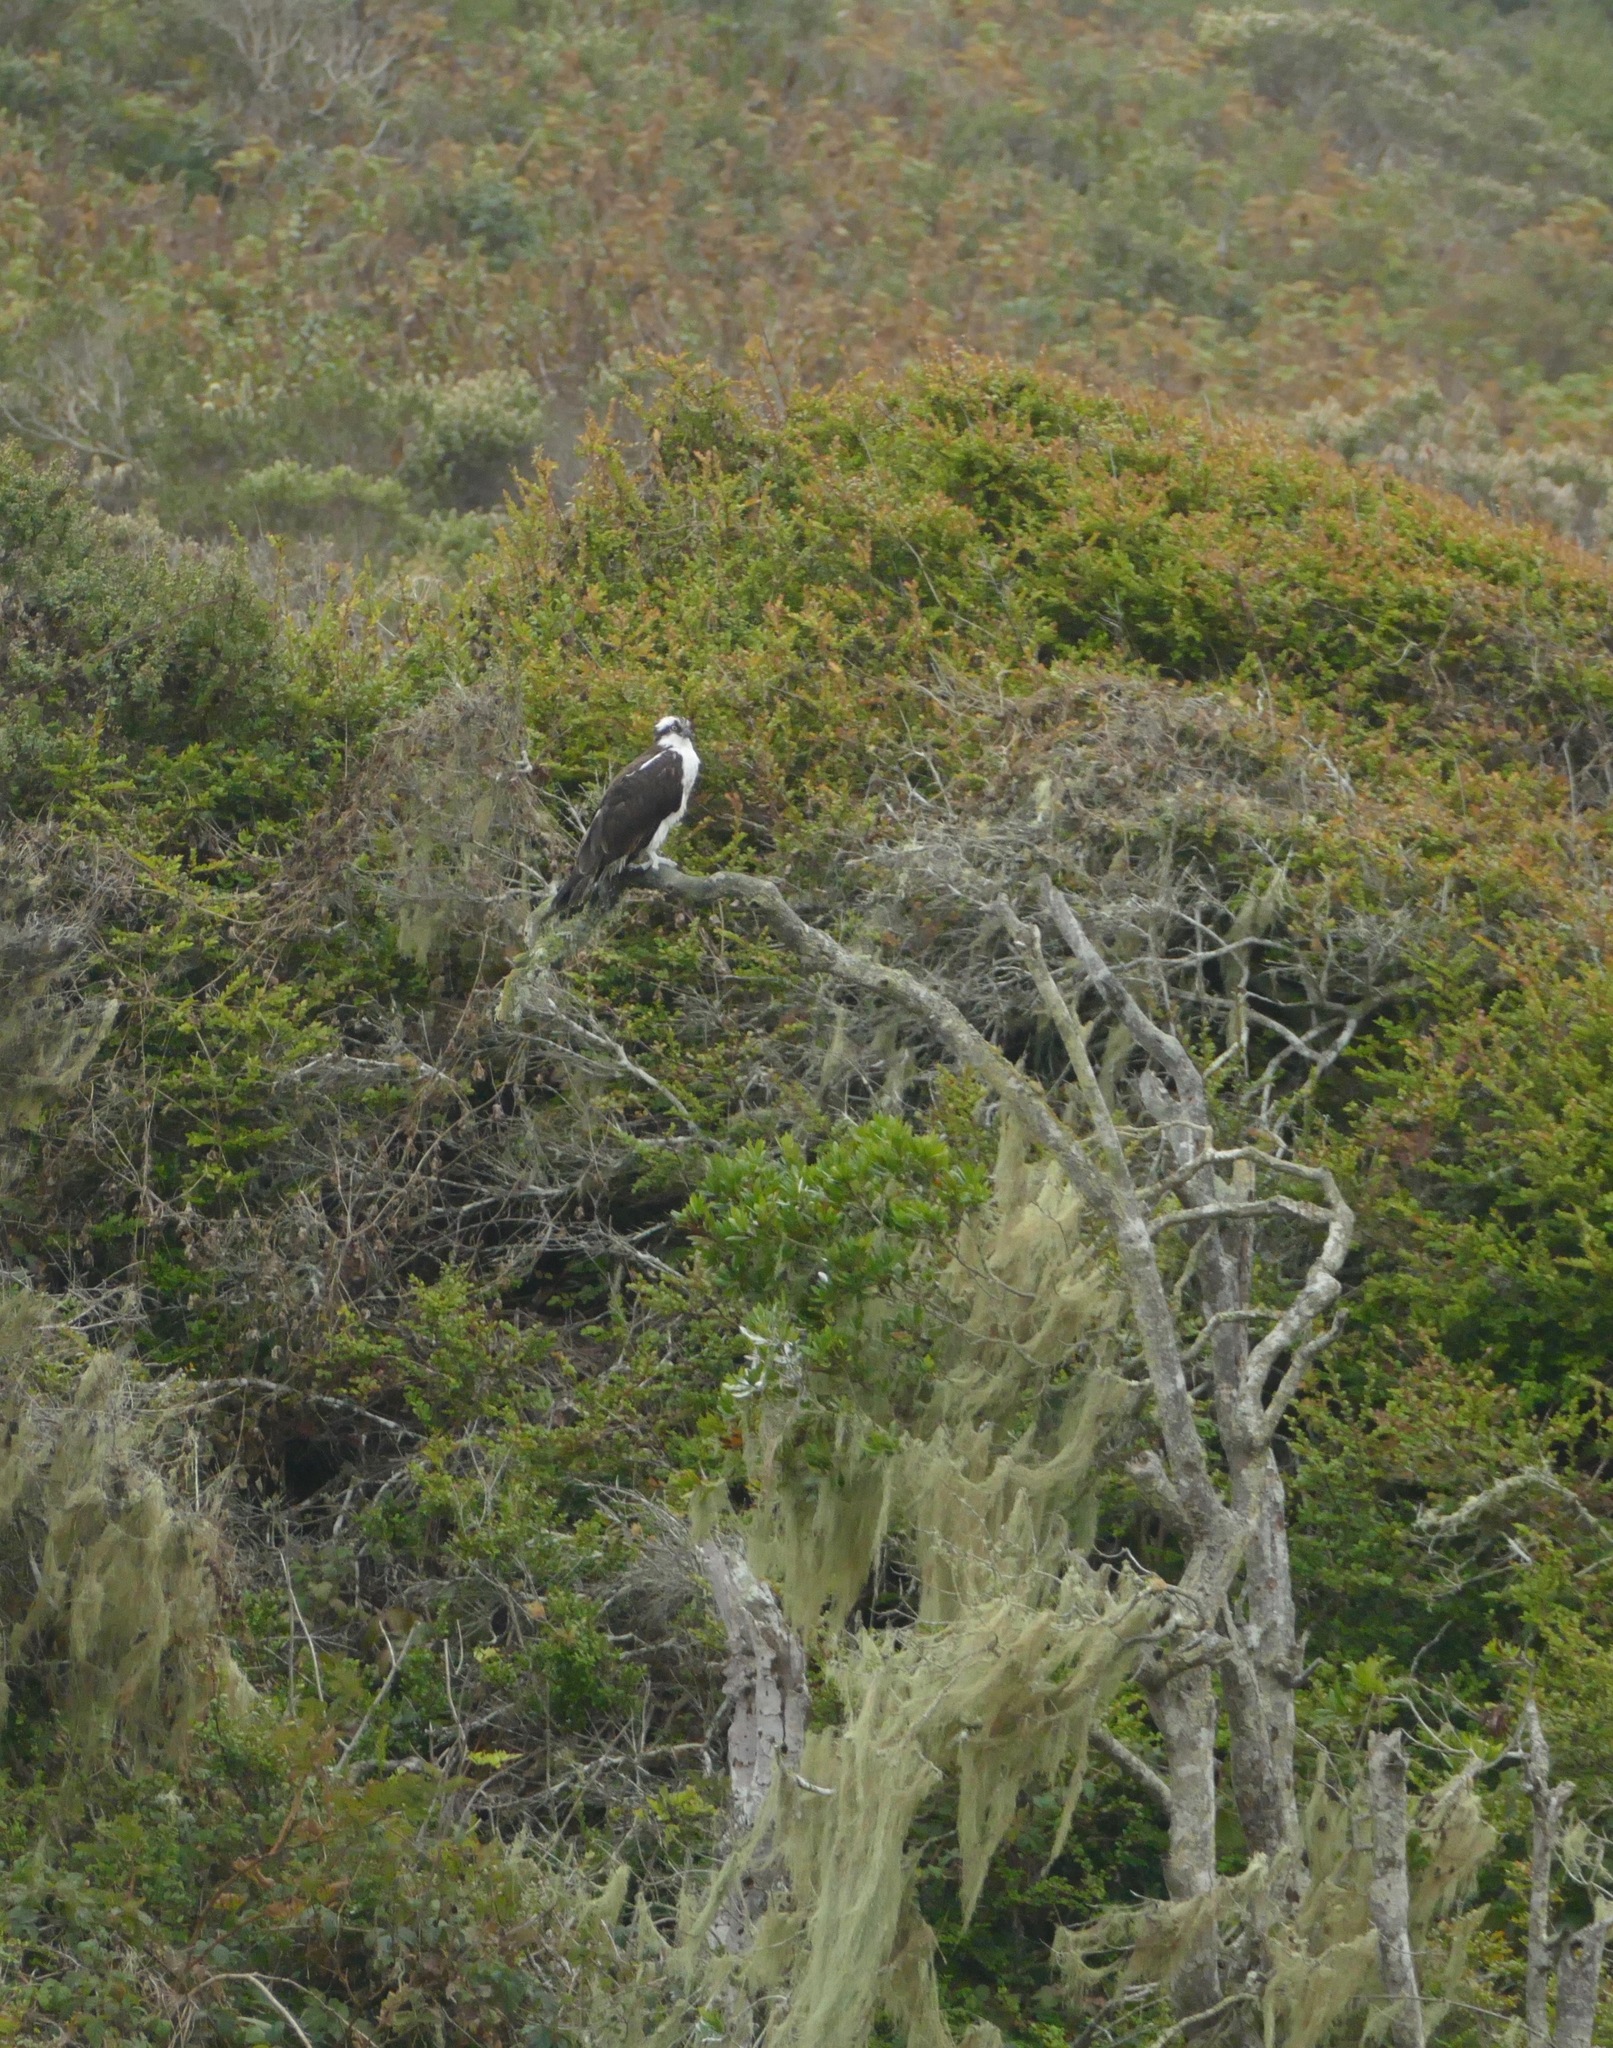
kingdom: Animalia
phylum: Chordata
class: Aves
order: Accipitriformes
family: Pandionidae
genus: Pandion
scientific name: Pandion haliaetus
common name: Osprey
